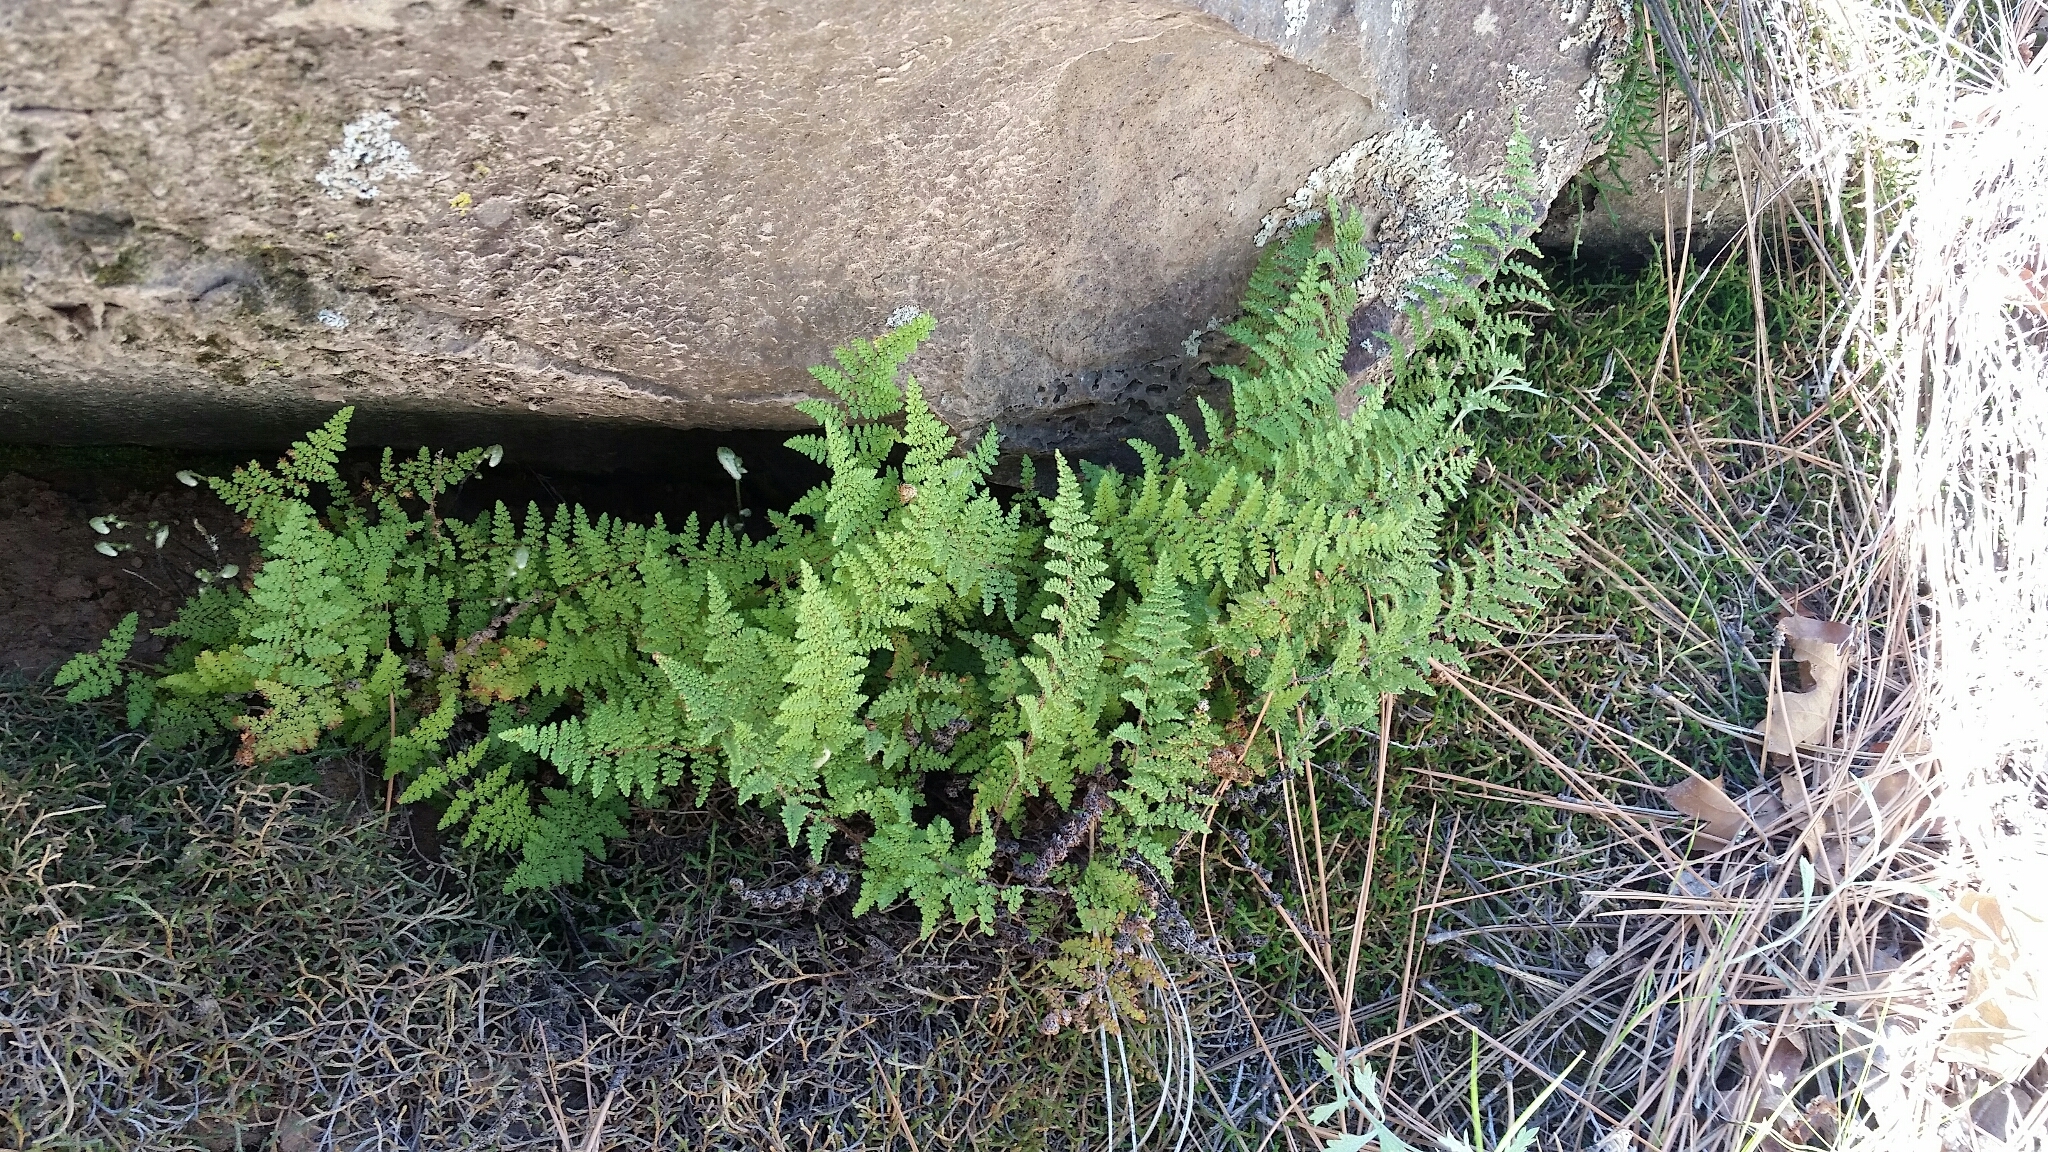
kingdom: Plantae
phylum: Tracheophyta
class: Polypodiopsida
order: Polypodiales
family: Pteridaceae
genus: Myriopteris
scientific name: Myriopteris fendleri
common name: Fendler's lip fern
